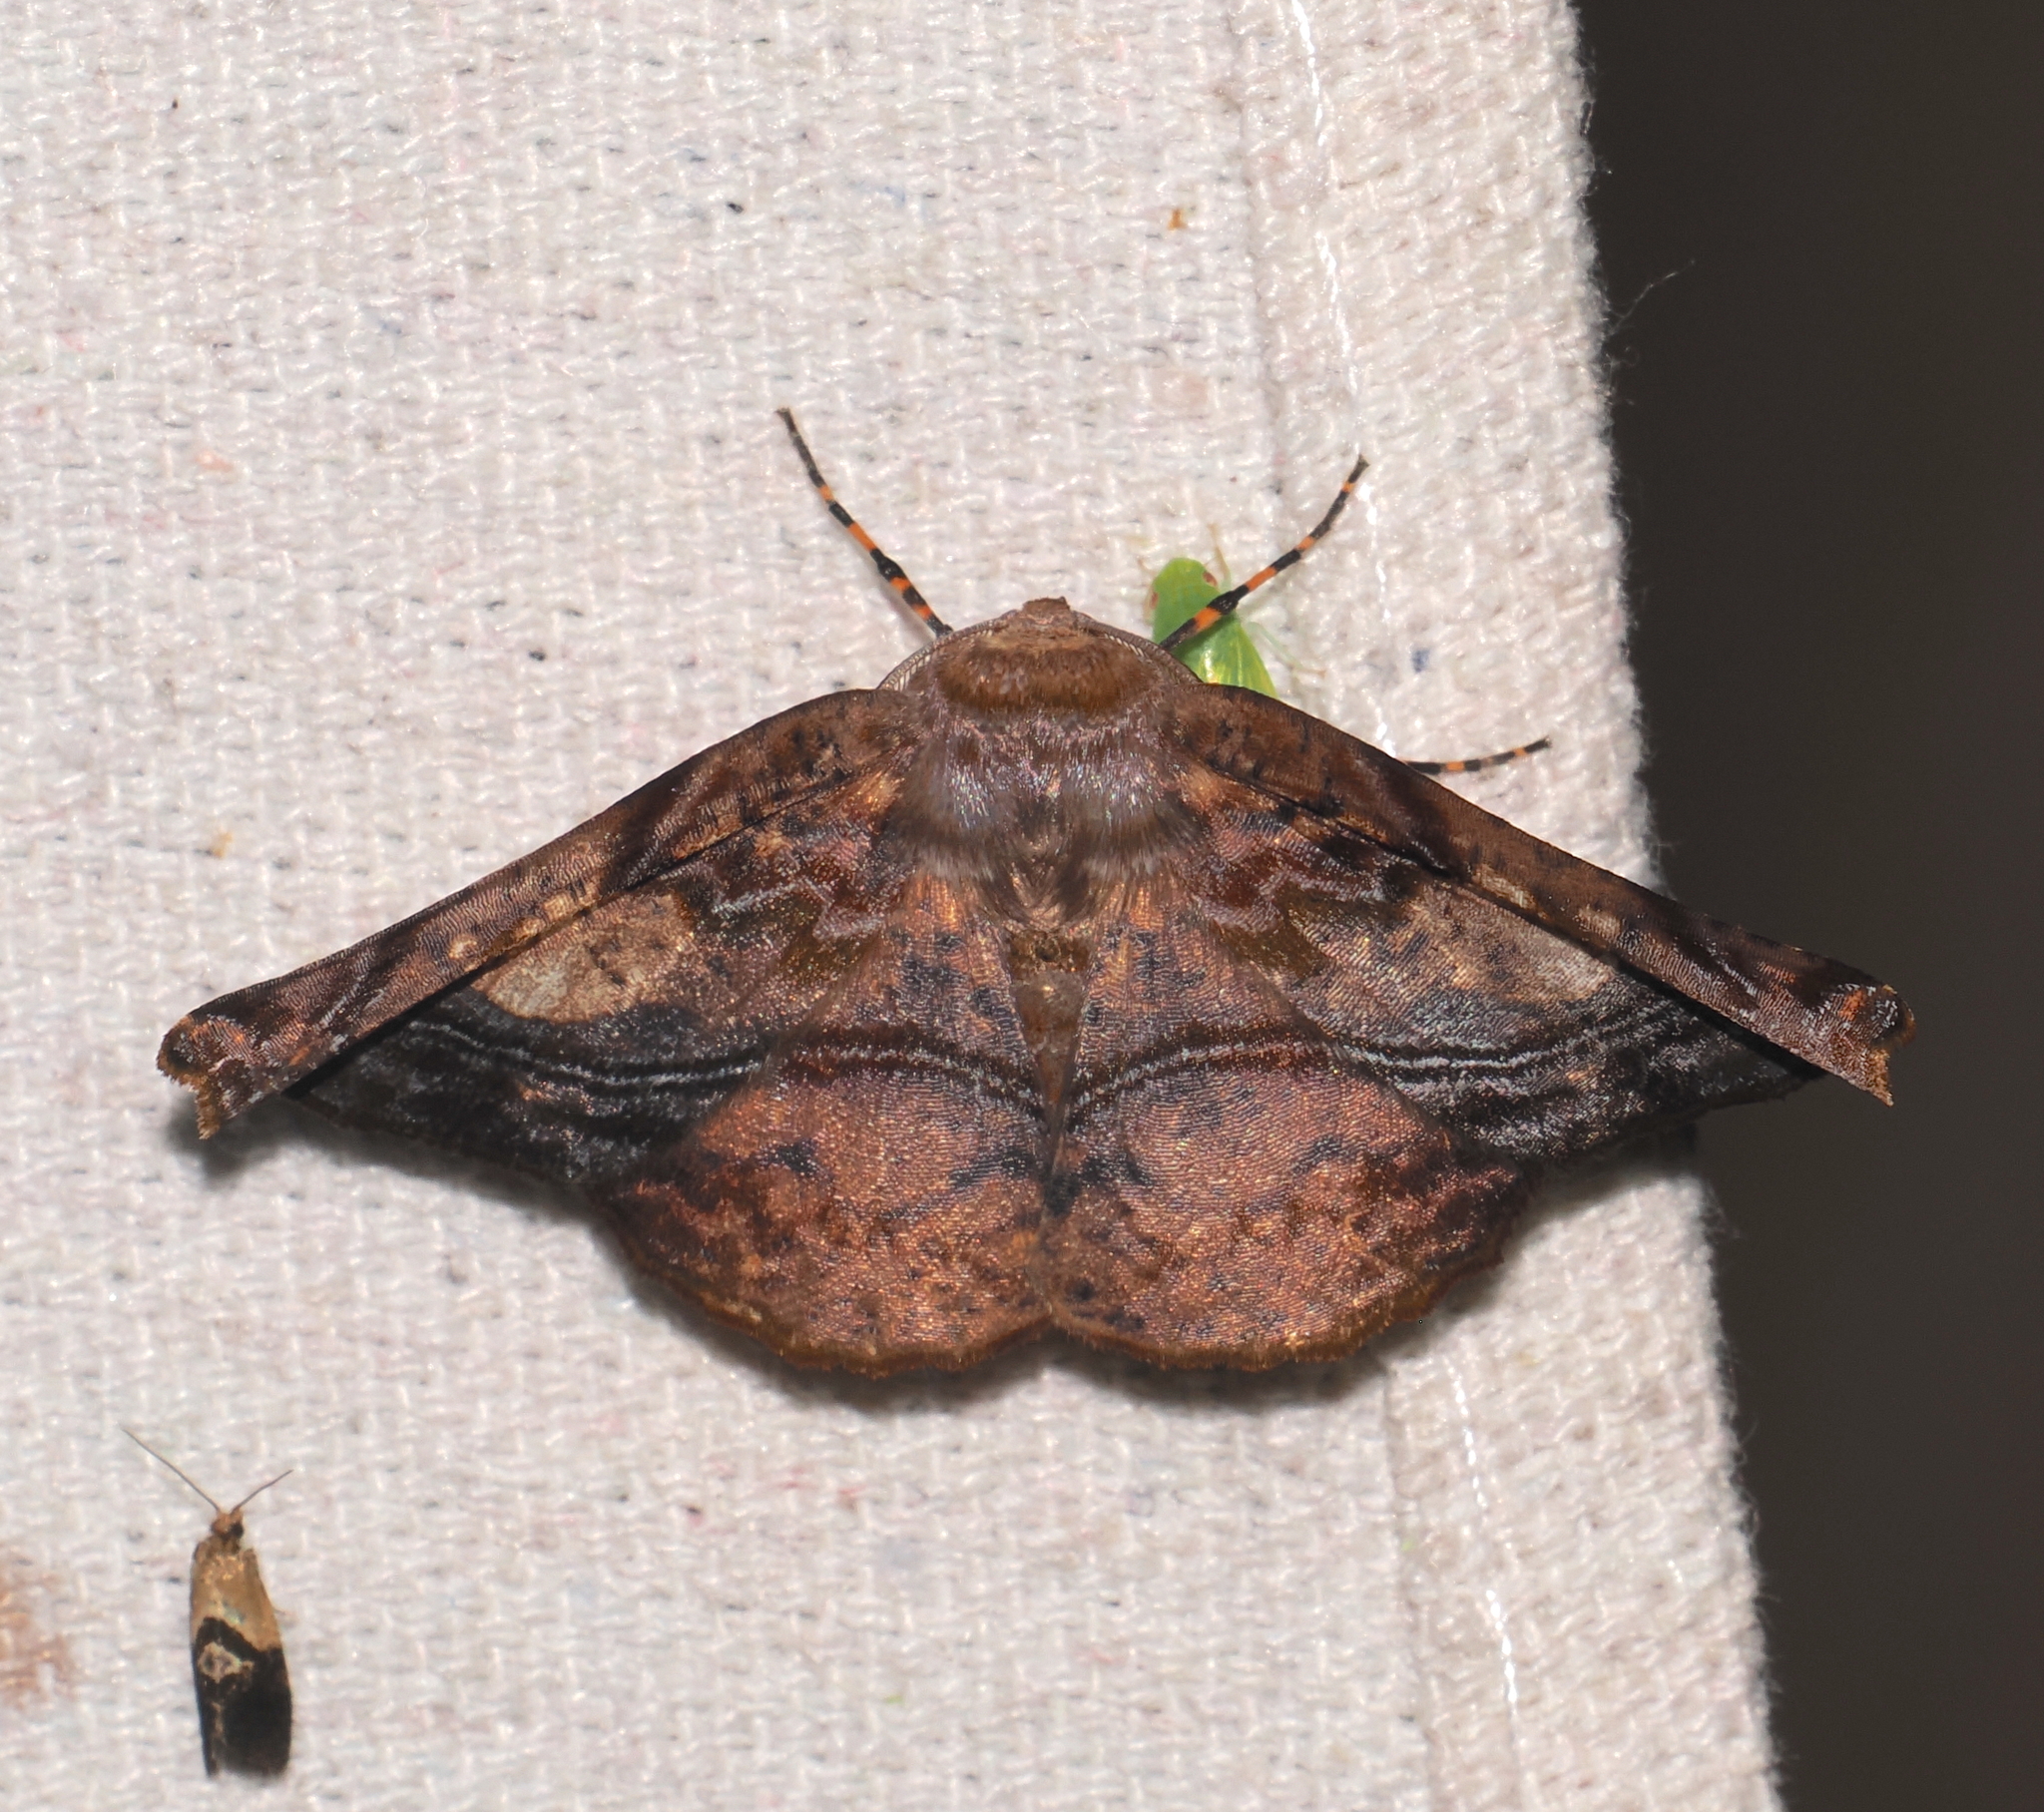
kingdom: Animalia
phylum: Arthropoda
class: Insecta
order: Lepidoptera
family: Geometridae
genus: Acrotomodes
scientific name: Acrotomodes ingridae
